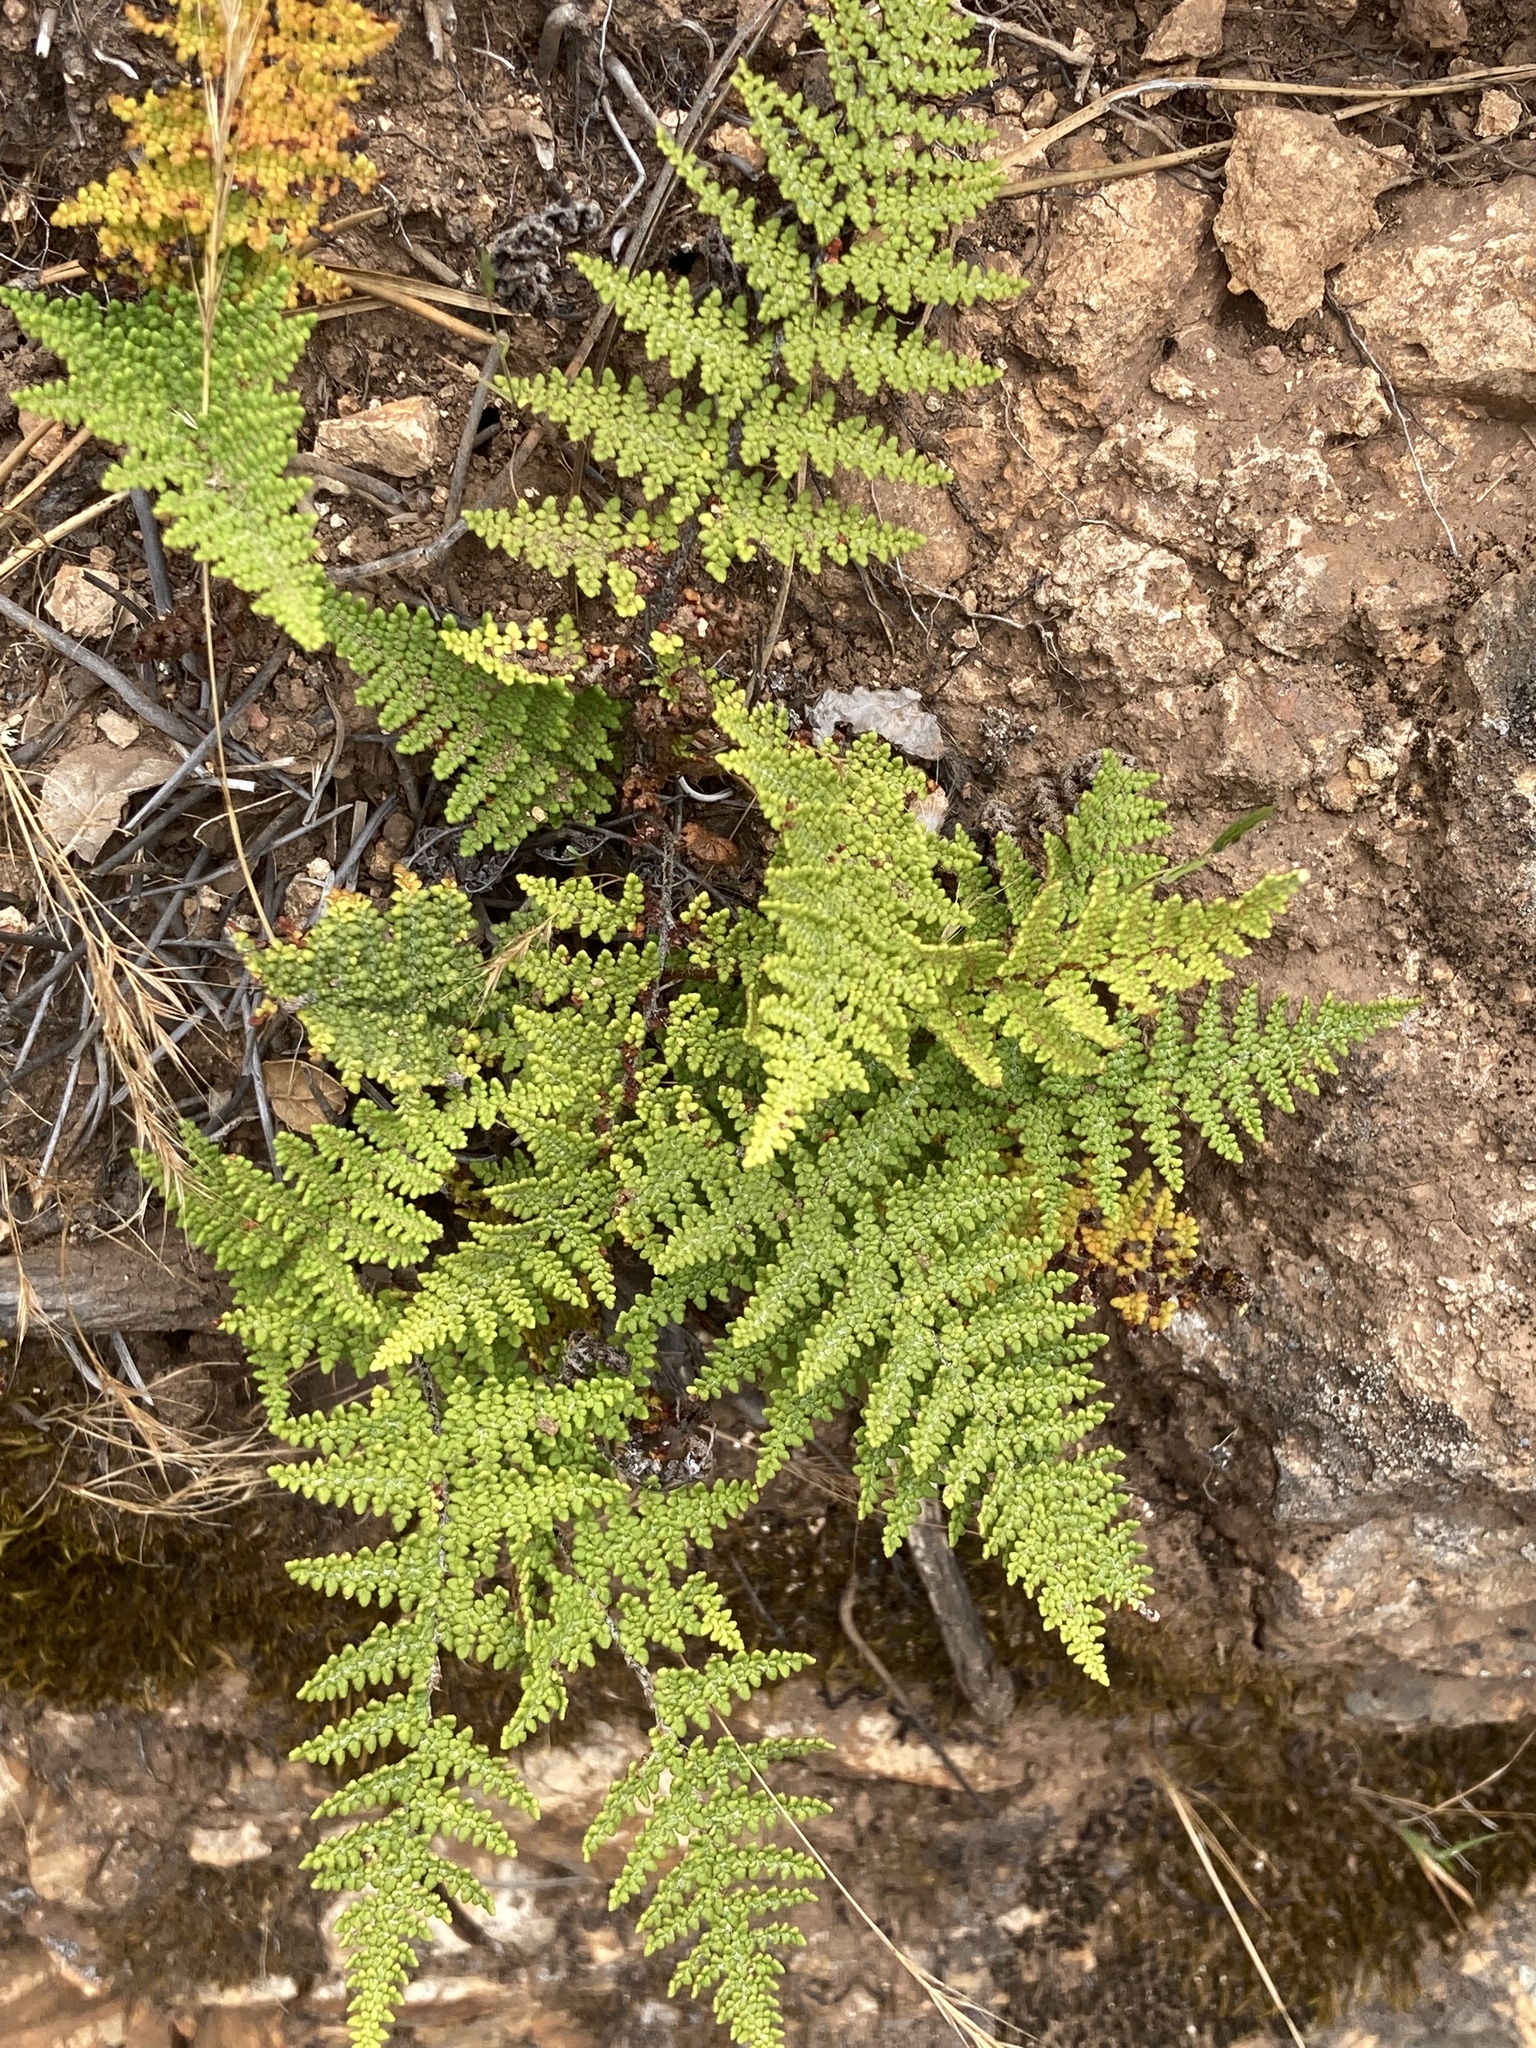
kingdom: Plantae
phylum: Tracheophyta
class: Polypodiopsida
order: Polypodiales
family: Pteridaceae
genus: Myriopteris
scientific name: Myriopteris clevelandii
